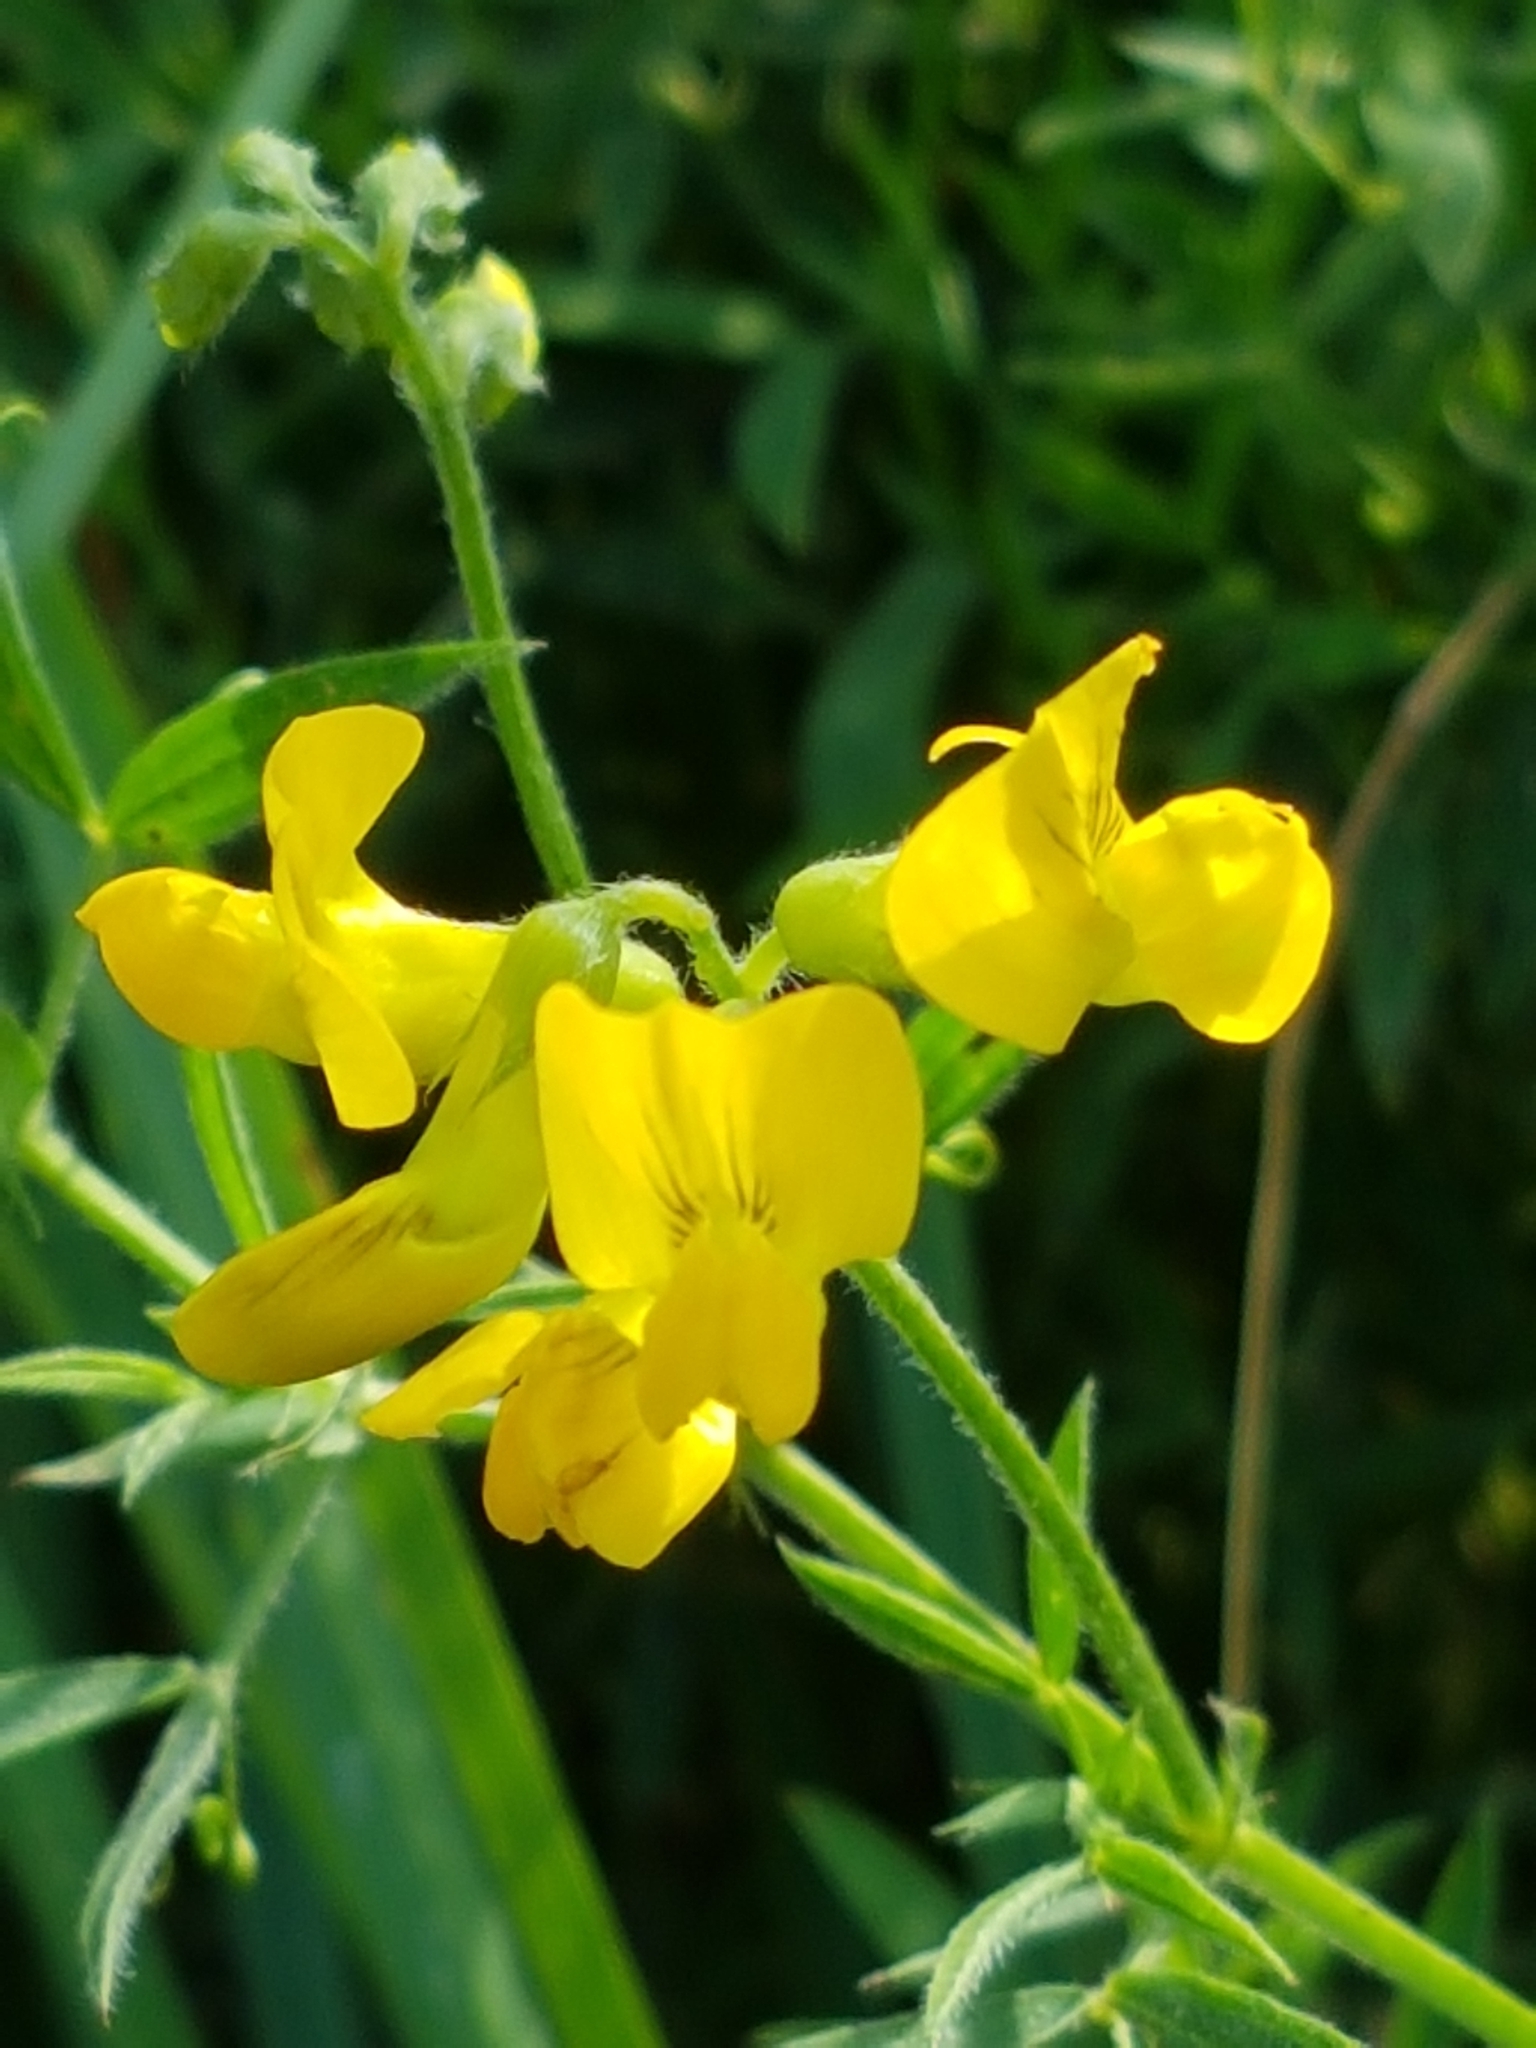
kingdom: Plantae
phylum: Tracheophyta
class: Magnoliopsida
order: Fabales
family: Fabaceae
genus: Lathyrus
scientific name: Lathyrus pratensis
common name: Meadow vetchling
